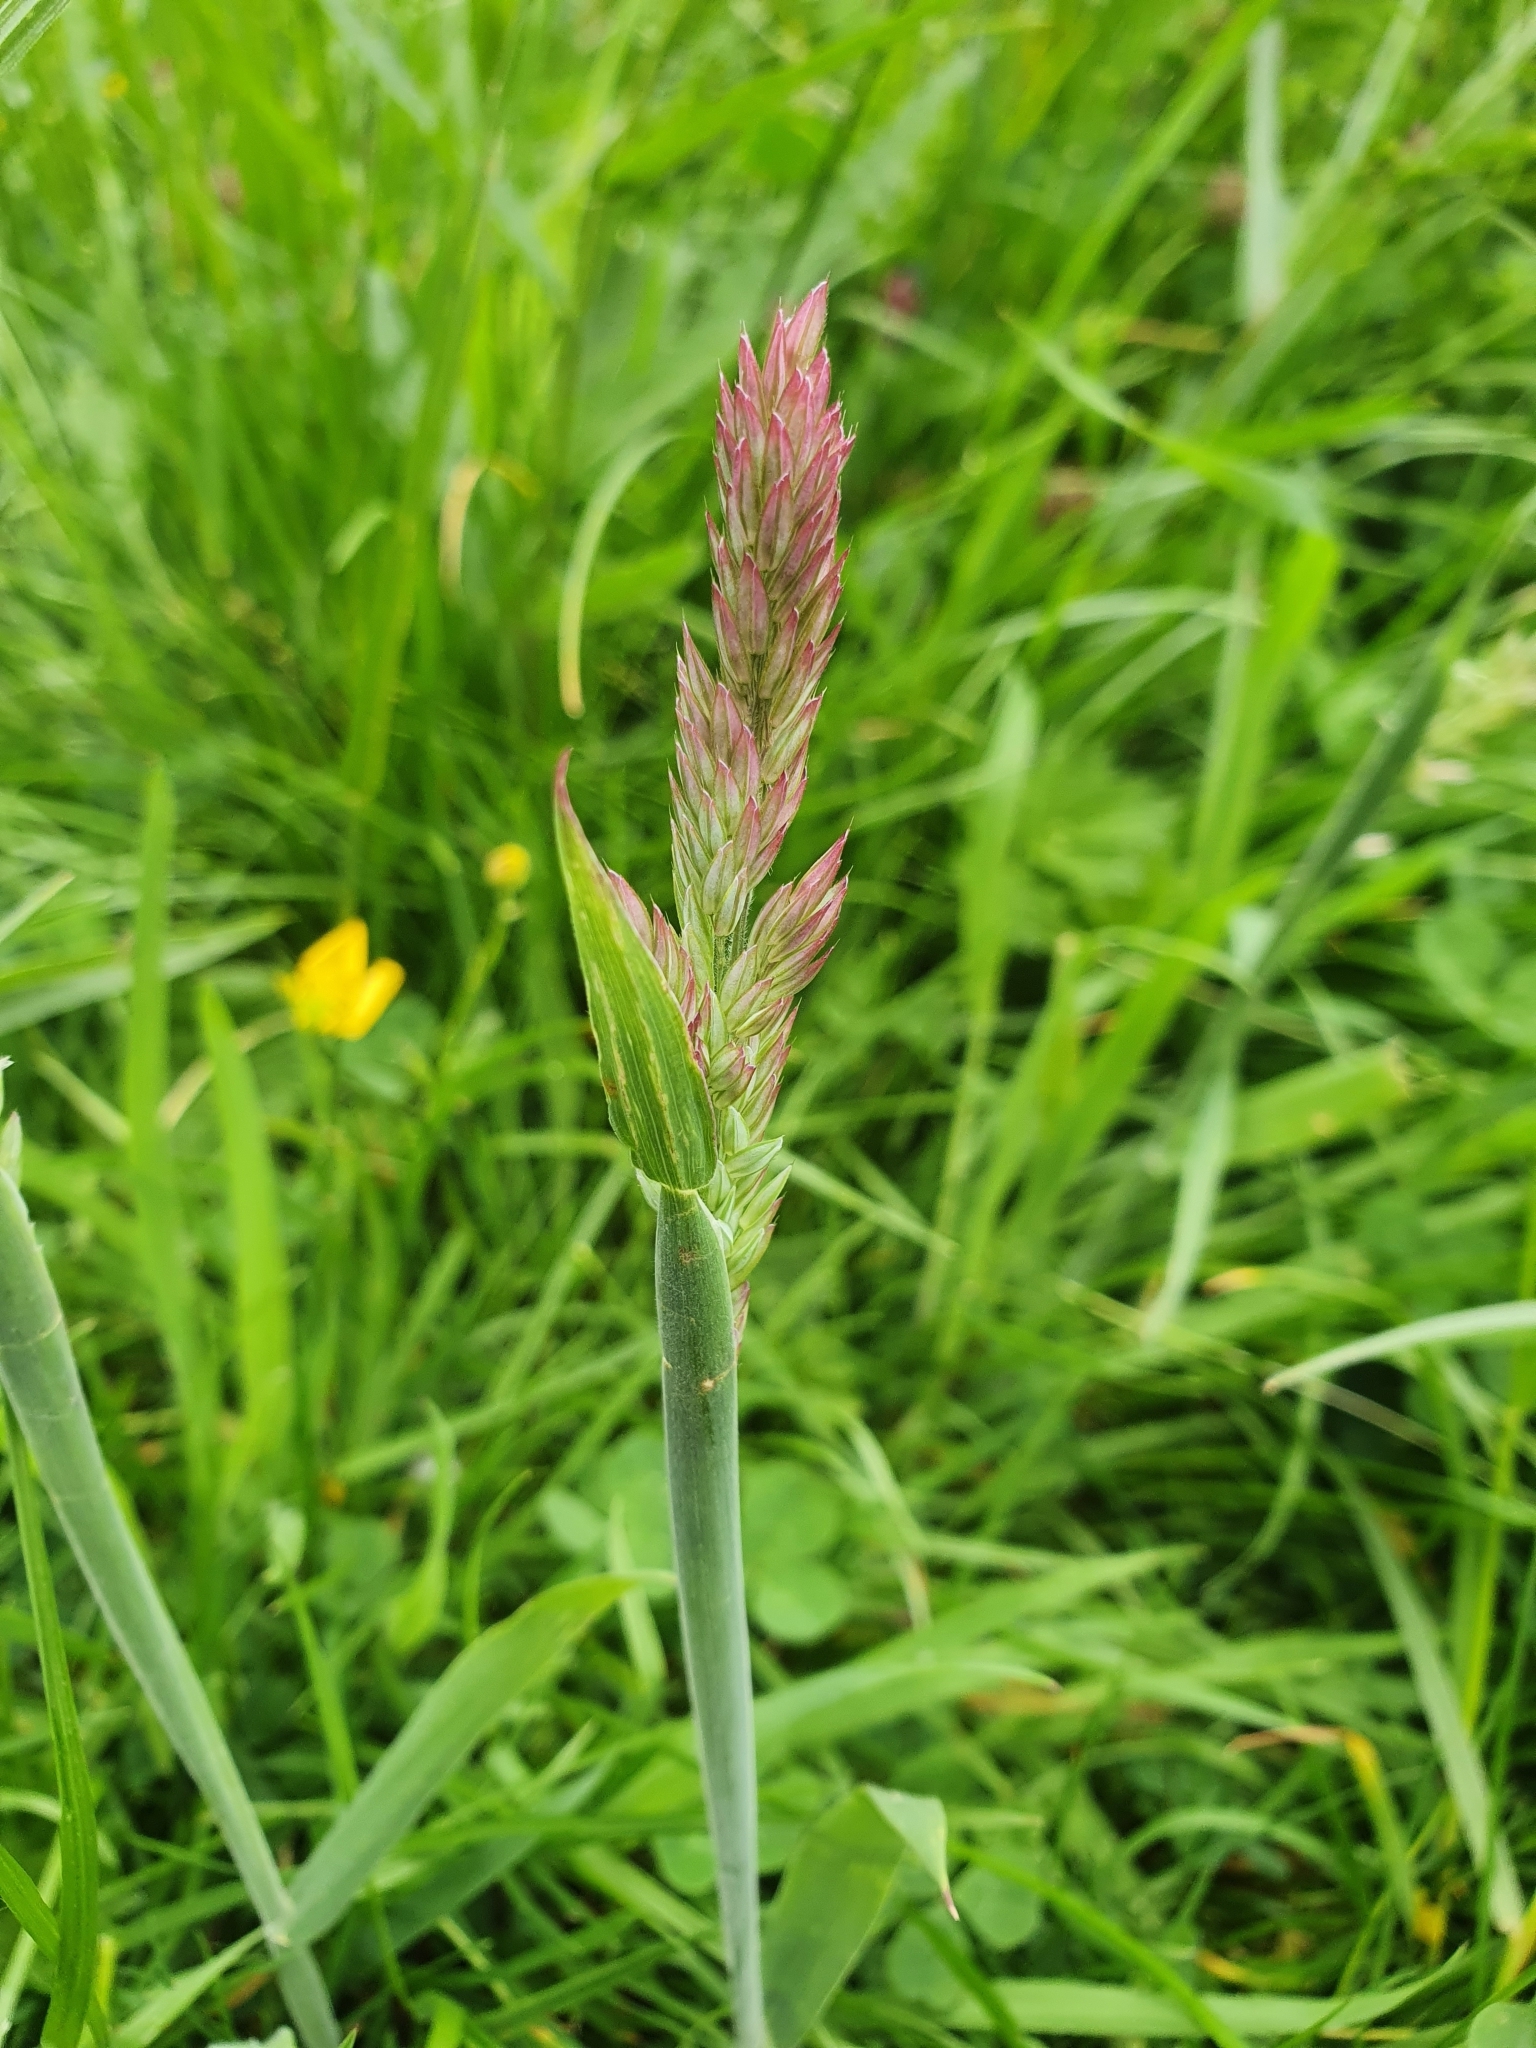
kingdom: Plantae
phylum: Tracheophyta
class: Liliopsida
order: Poales
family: Poaceae
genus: Holcus
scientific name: Holcus lanatus
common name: Yorkshire-fog
